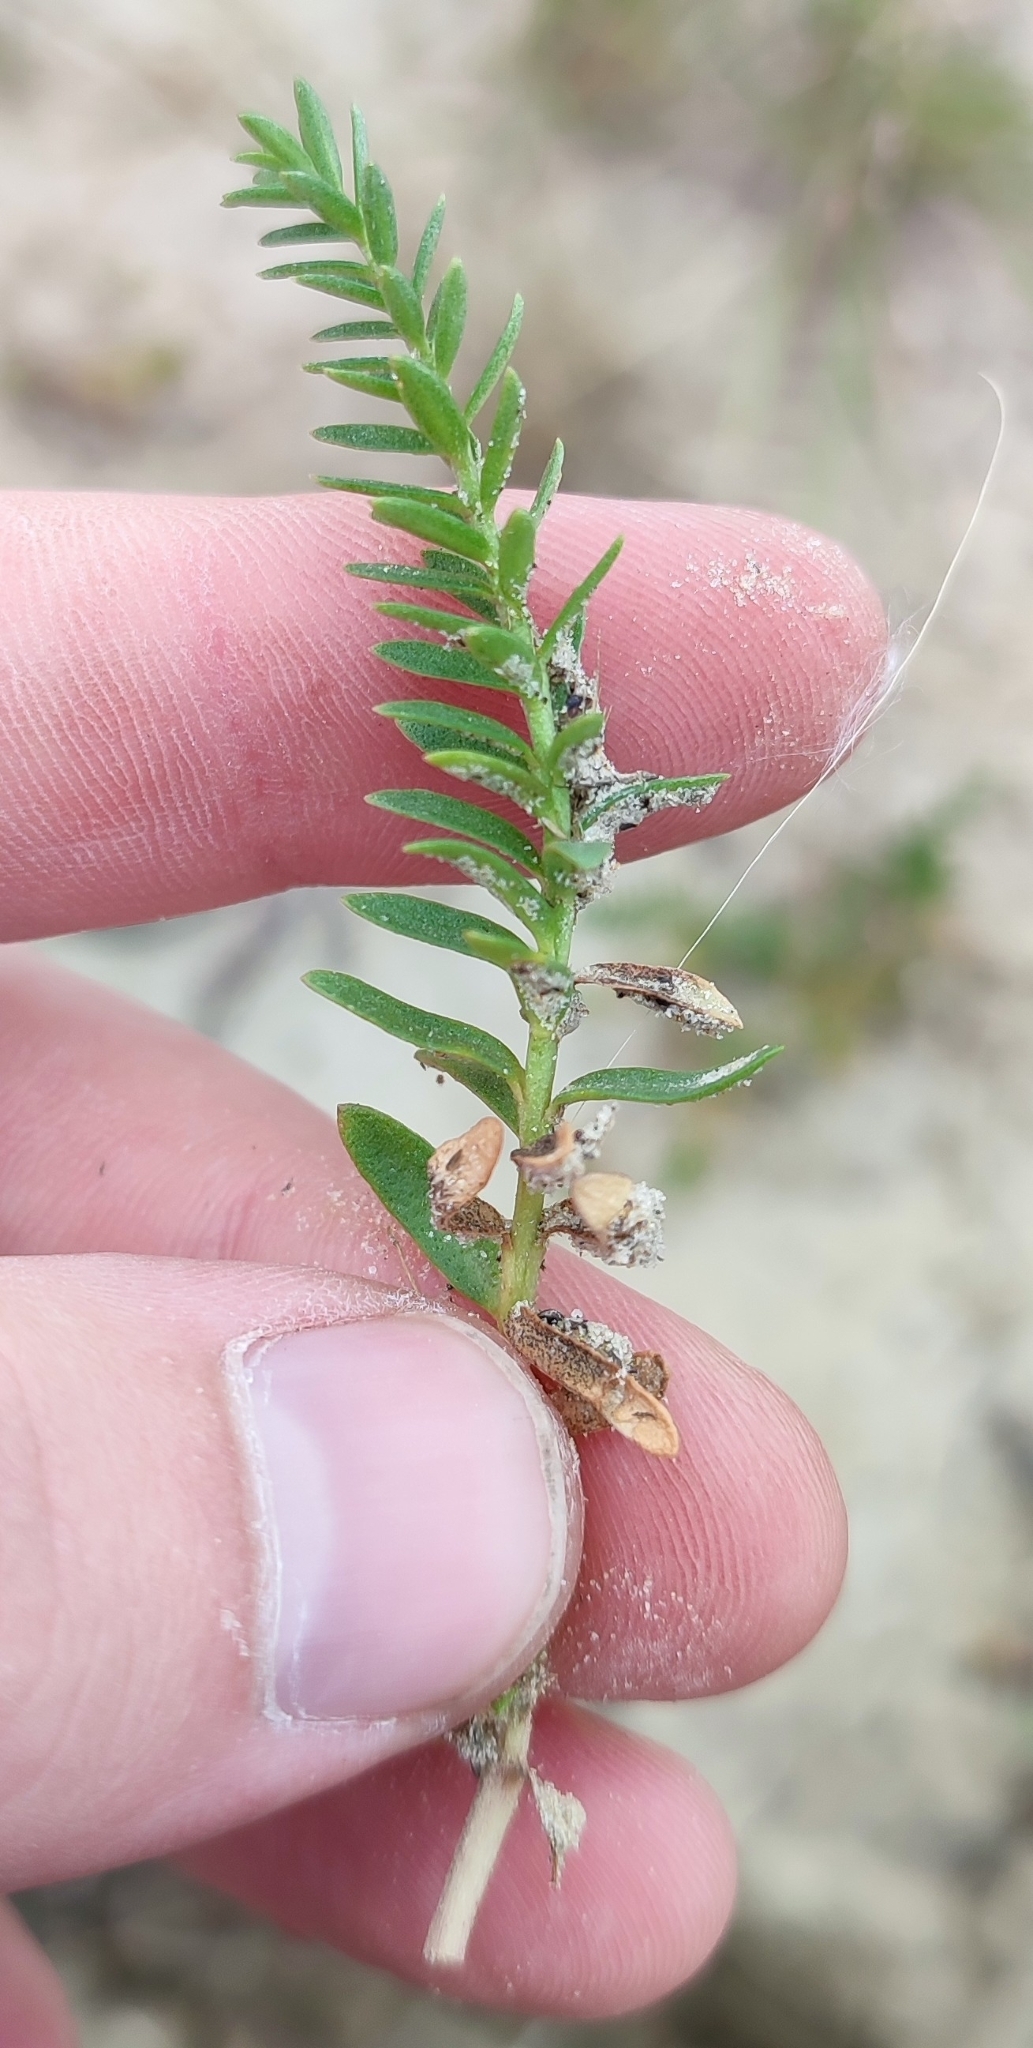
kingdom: Plantae
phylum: Tracheophyta
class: Magnoliopsida
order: Ericales
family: Primulaceae
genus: Lysimachia
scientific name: Lysimachia maritima
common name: Sea milkwort
